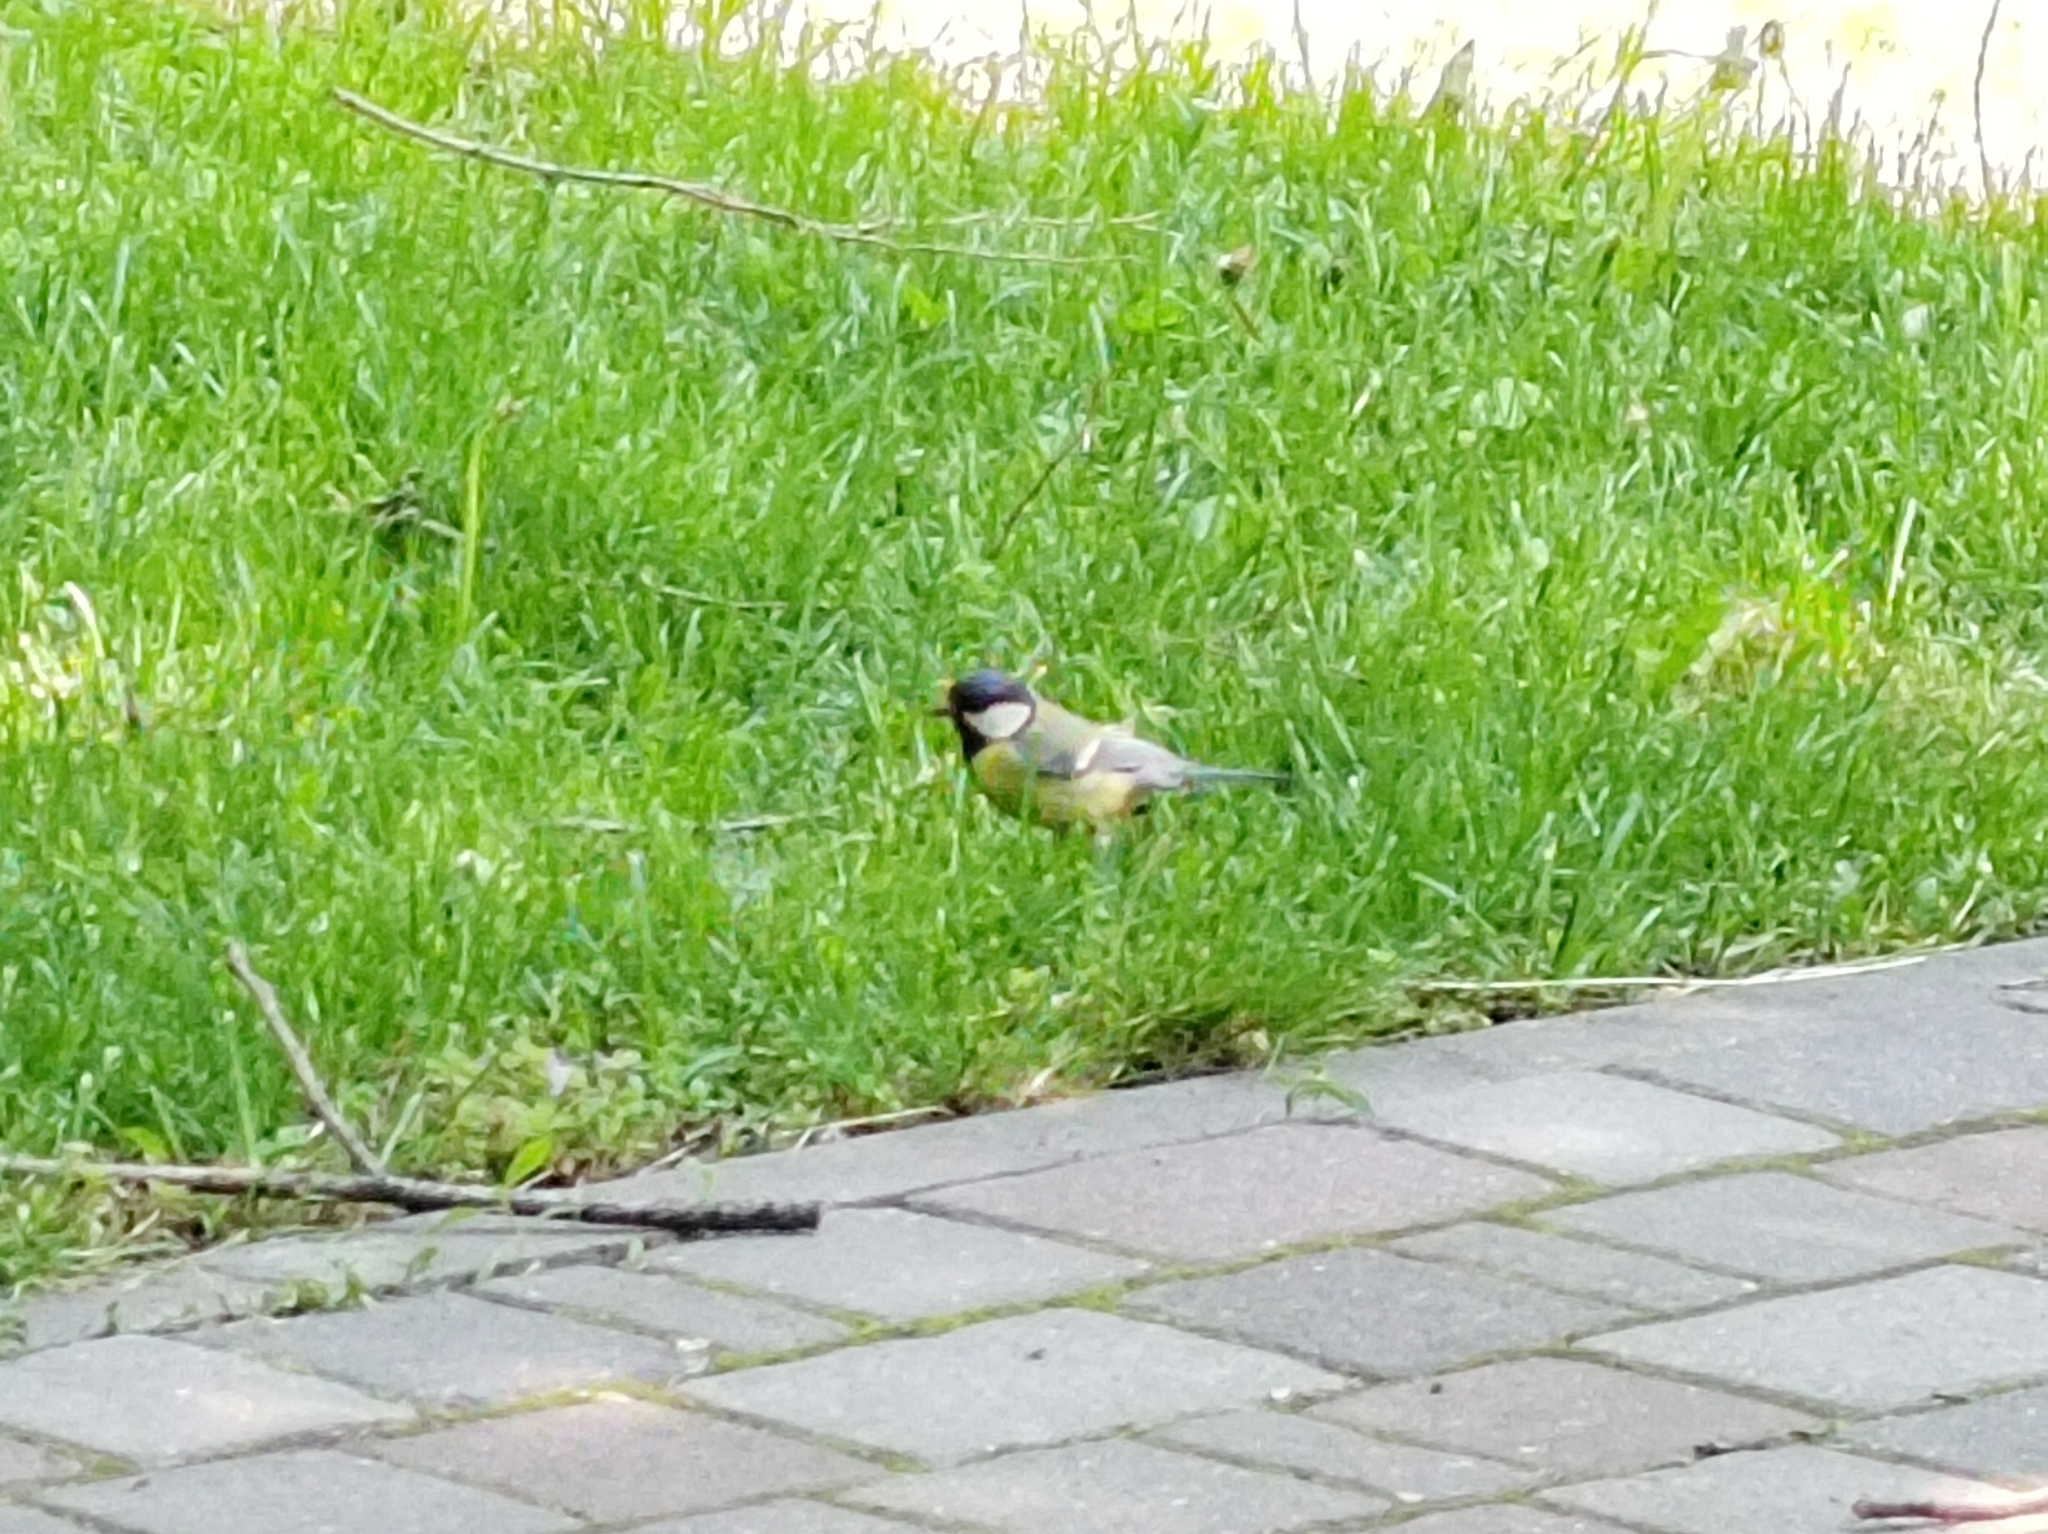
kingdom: Animalia
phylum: Chordata
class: Aves
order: Passeriformes
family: Paridae
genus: Parus
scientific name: Parus major
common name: Great tit
